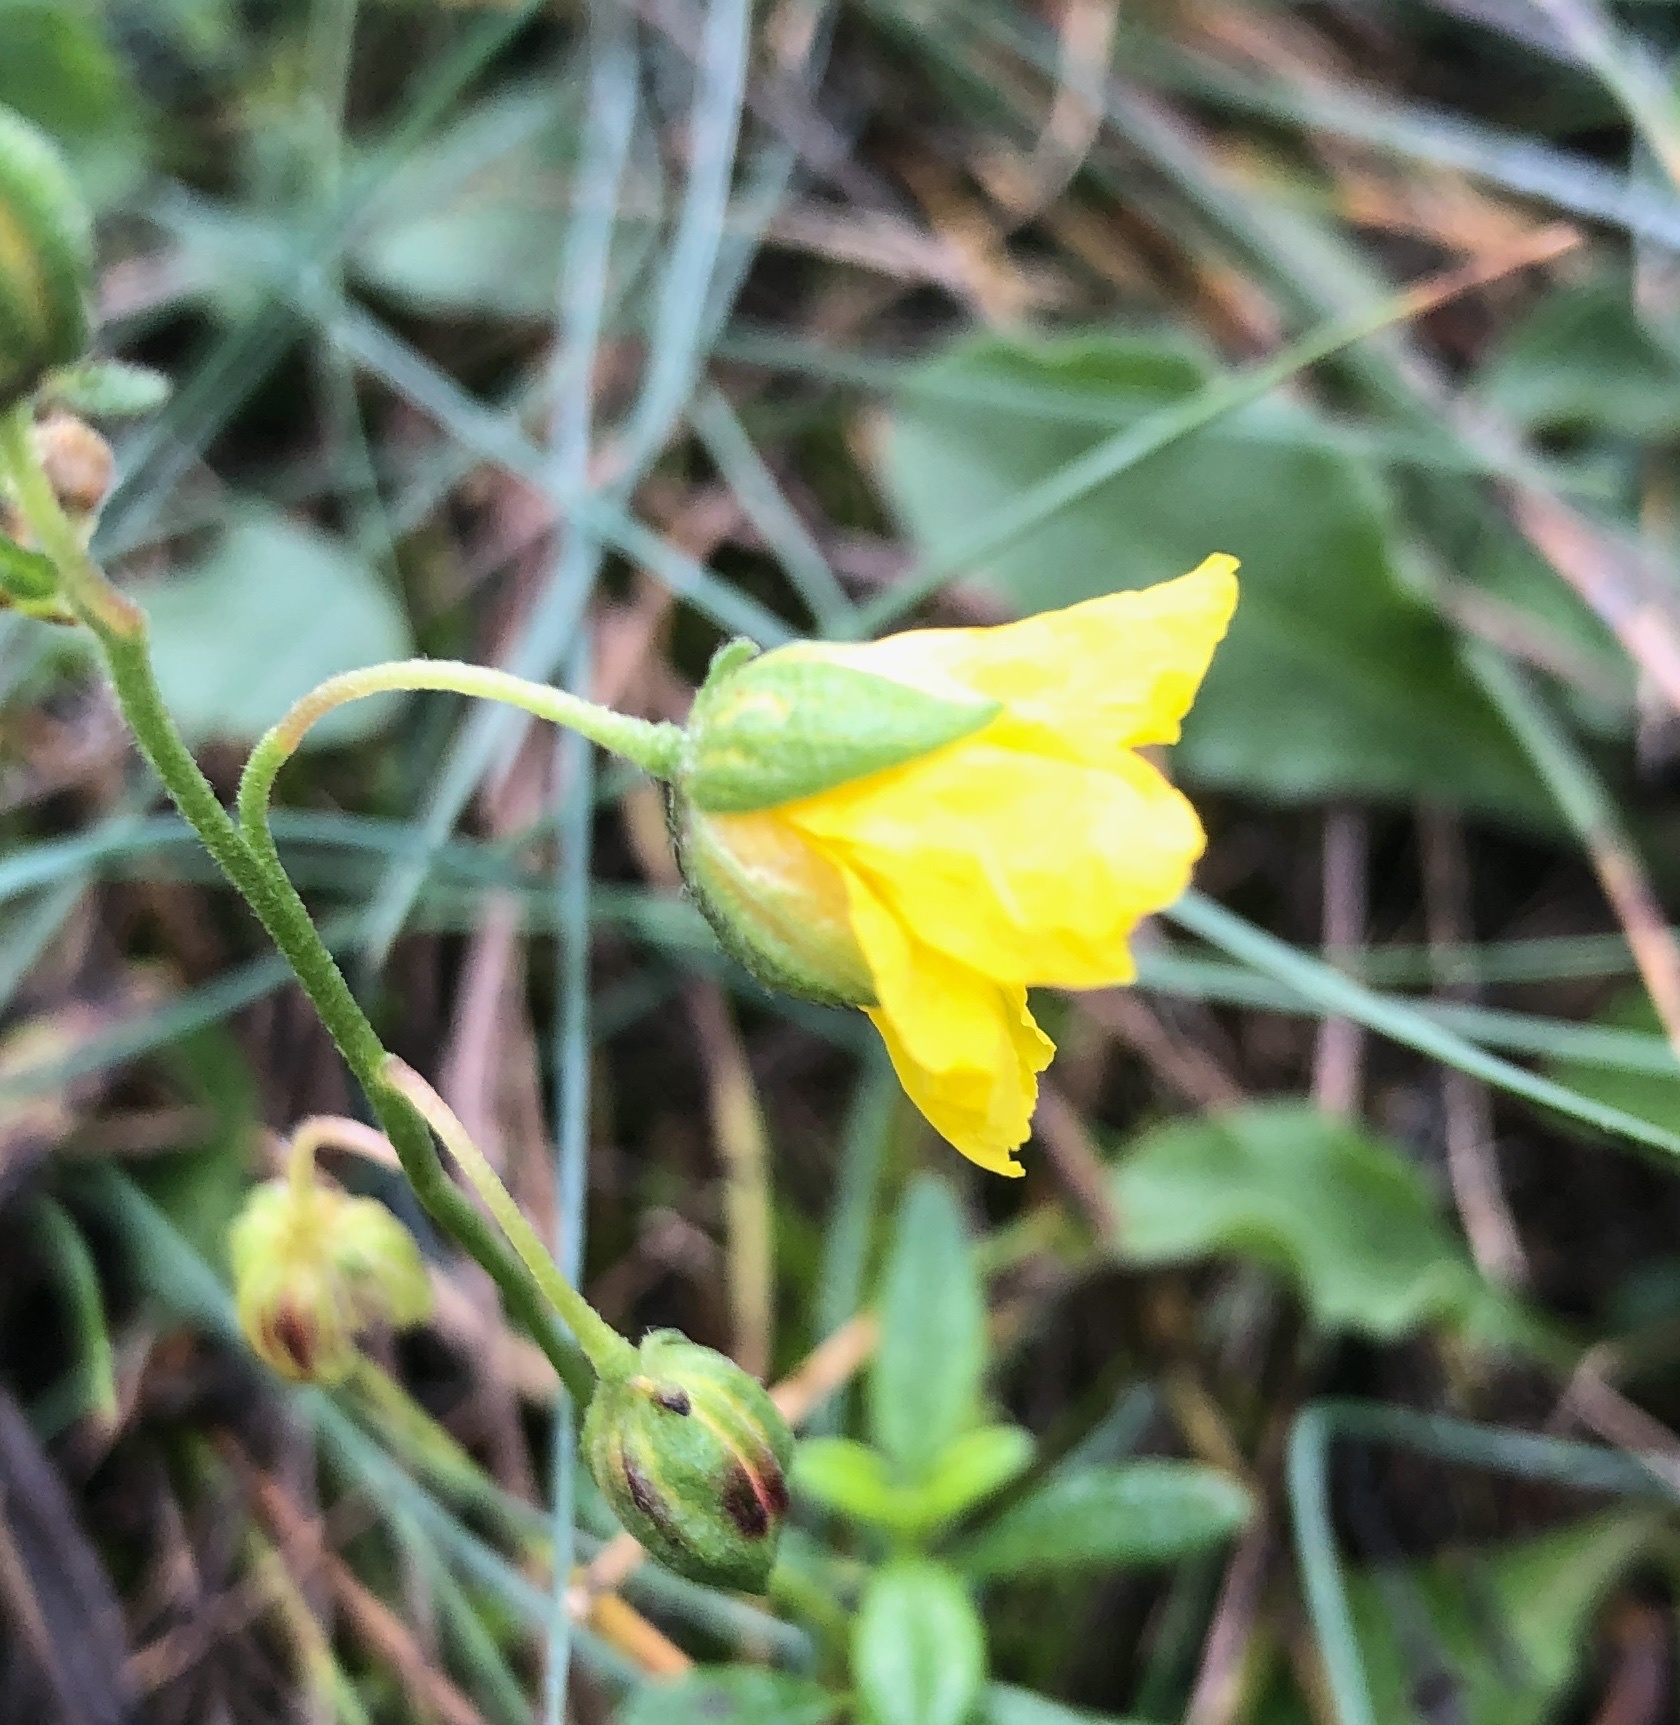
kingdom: Plantae
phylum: Tracheophyta
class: Magnoliopsida
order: Malvales
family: Cistaceae
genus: Helianthemum
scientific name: Helianthemum nummularium
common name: Common rock-rose
